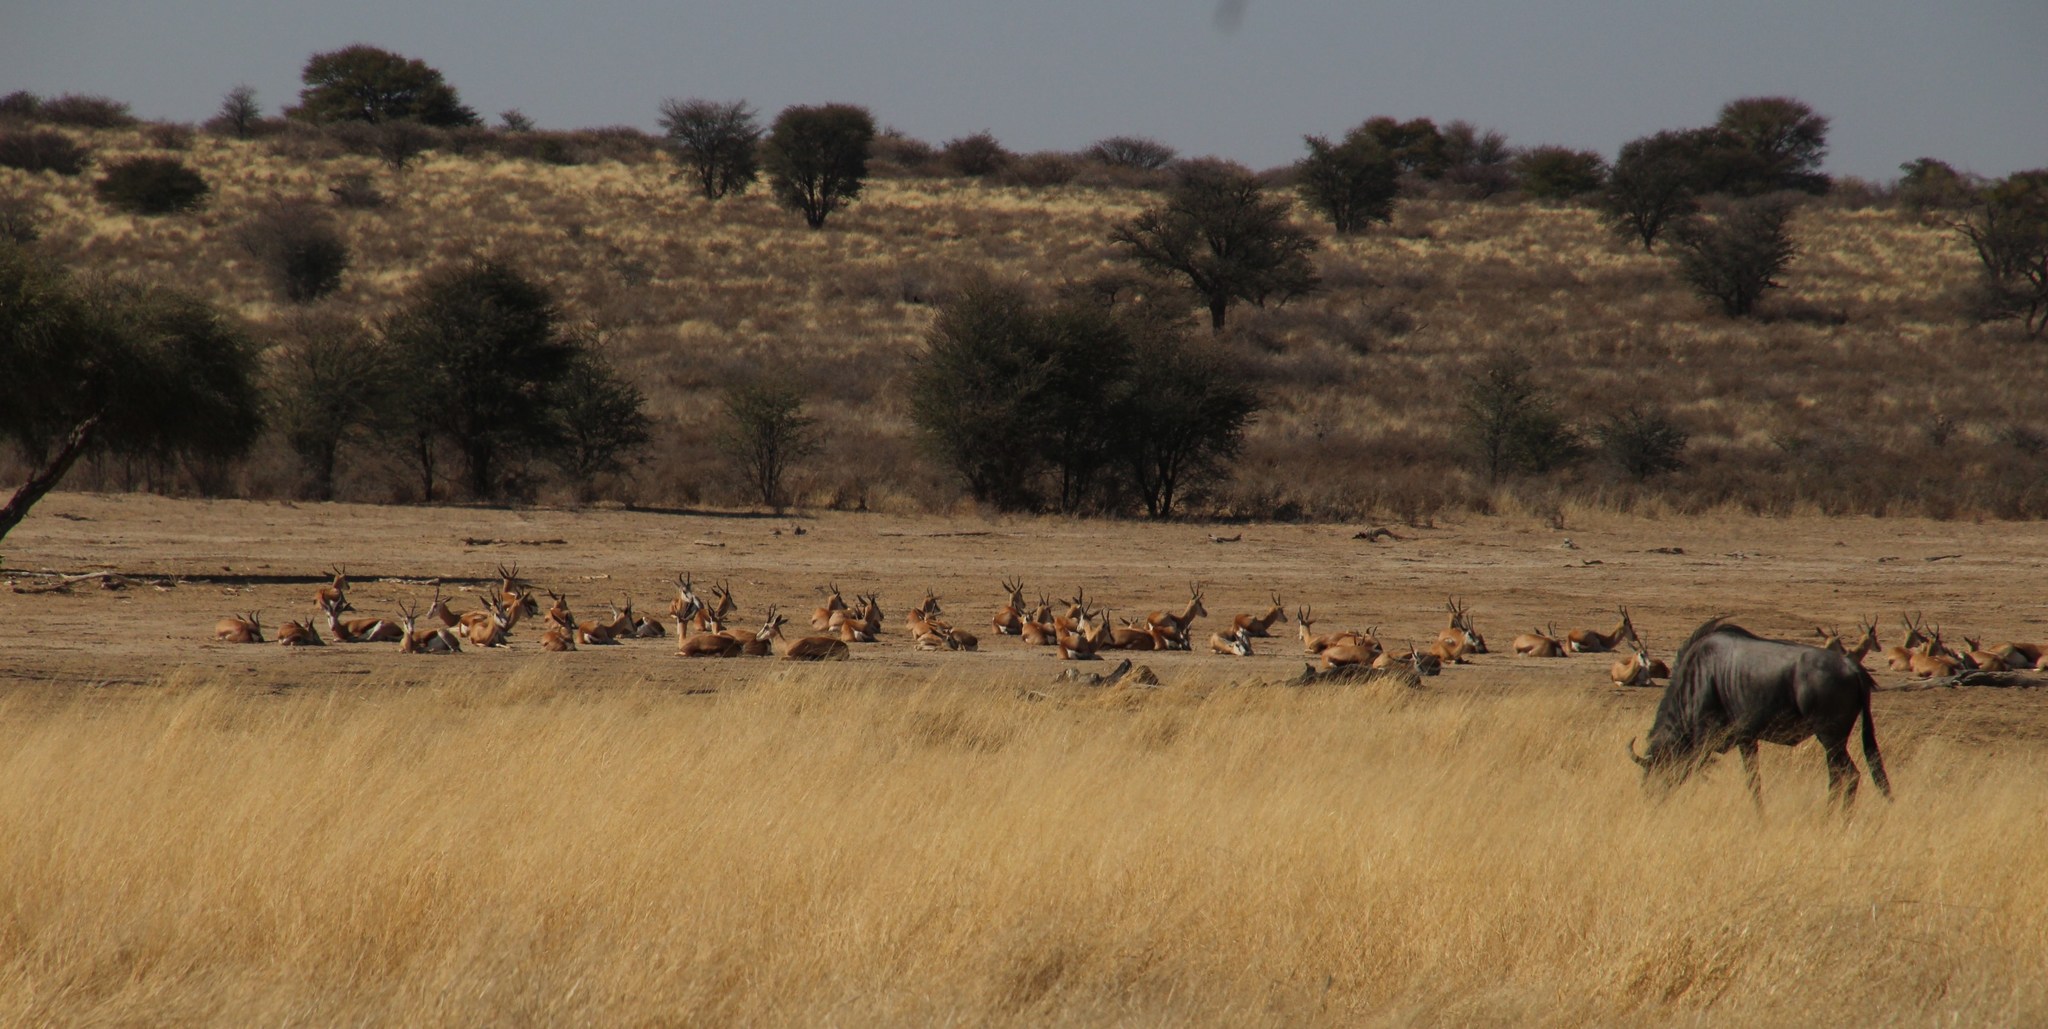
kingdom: Animalia
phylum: Chordata
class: Mammalia
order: Artiodactyla
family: Bovidae
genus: Antidorcas
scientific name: Antidorcas marsupialis
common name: Springbok
